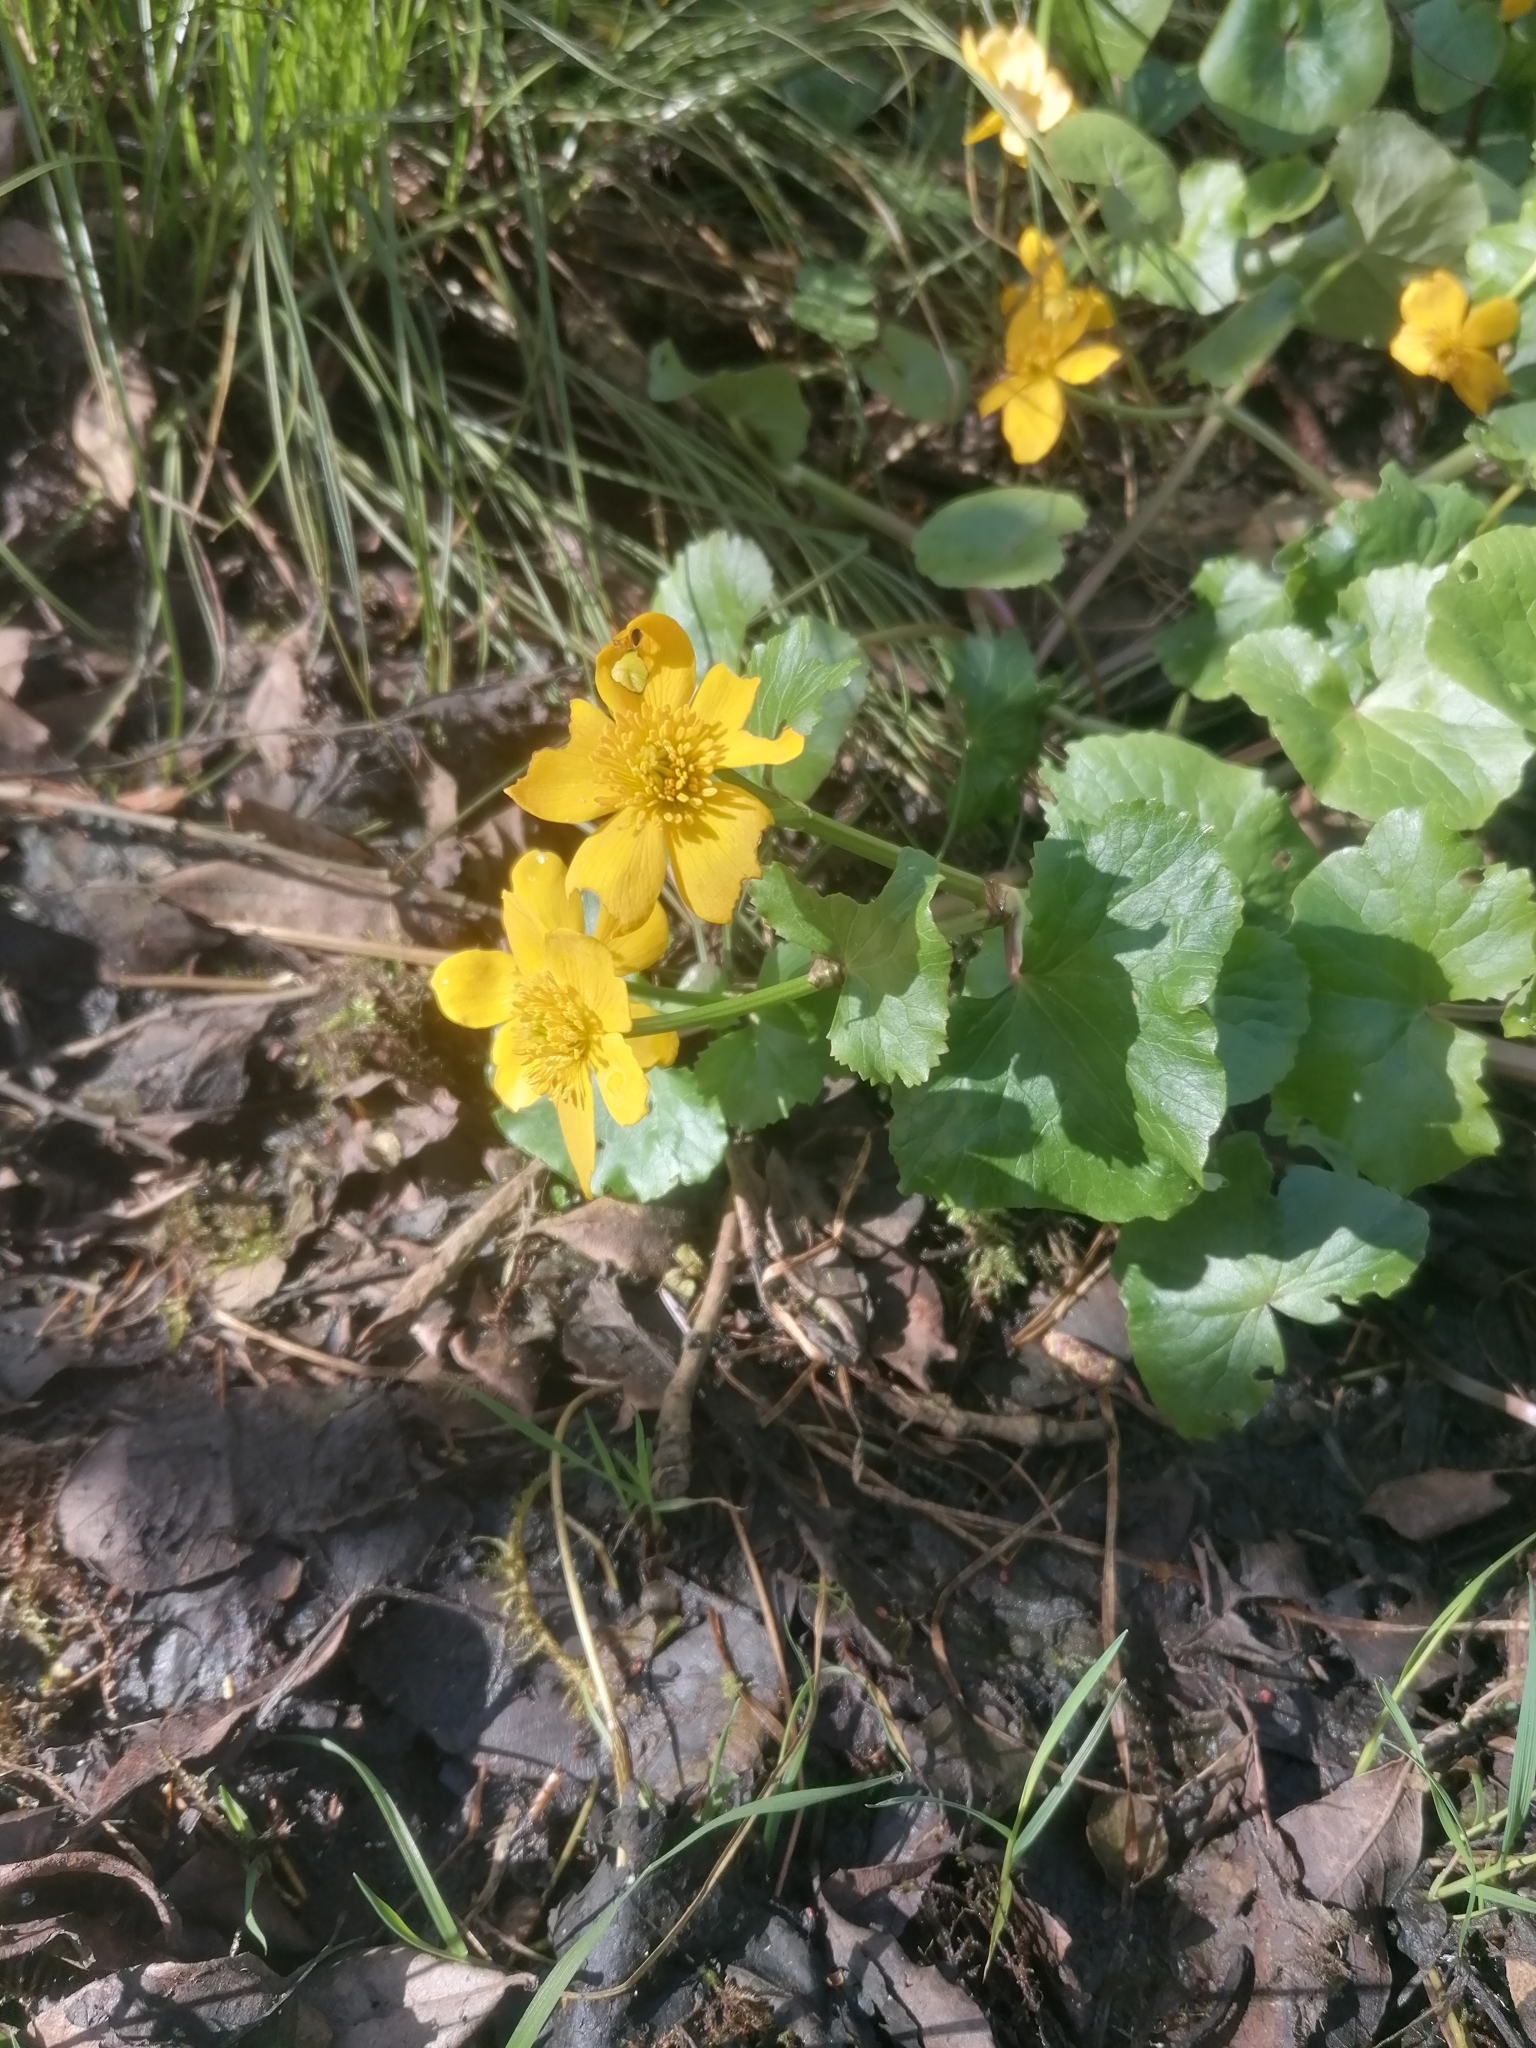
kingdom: Plantae
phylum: Tracheophyta
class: Magnoliopsida
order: Ranunculales
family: Ranunculaceae
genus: Caltha
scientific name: Caltha palustris
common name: Marsh marigold
